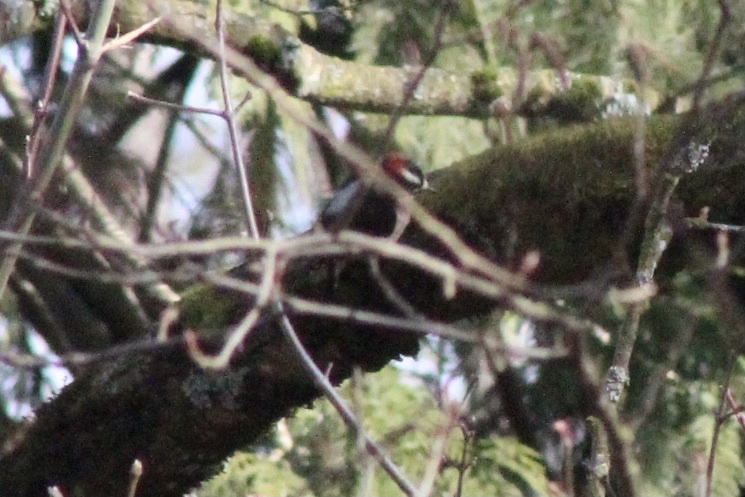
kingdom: Animalia
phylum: Chordata
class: Aves
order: Piciformes
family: Picidae
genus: Dryobates
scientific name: Dryobates pubescens
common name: Downy woodpecker
